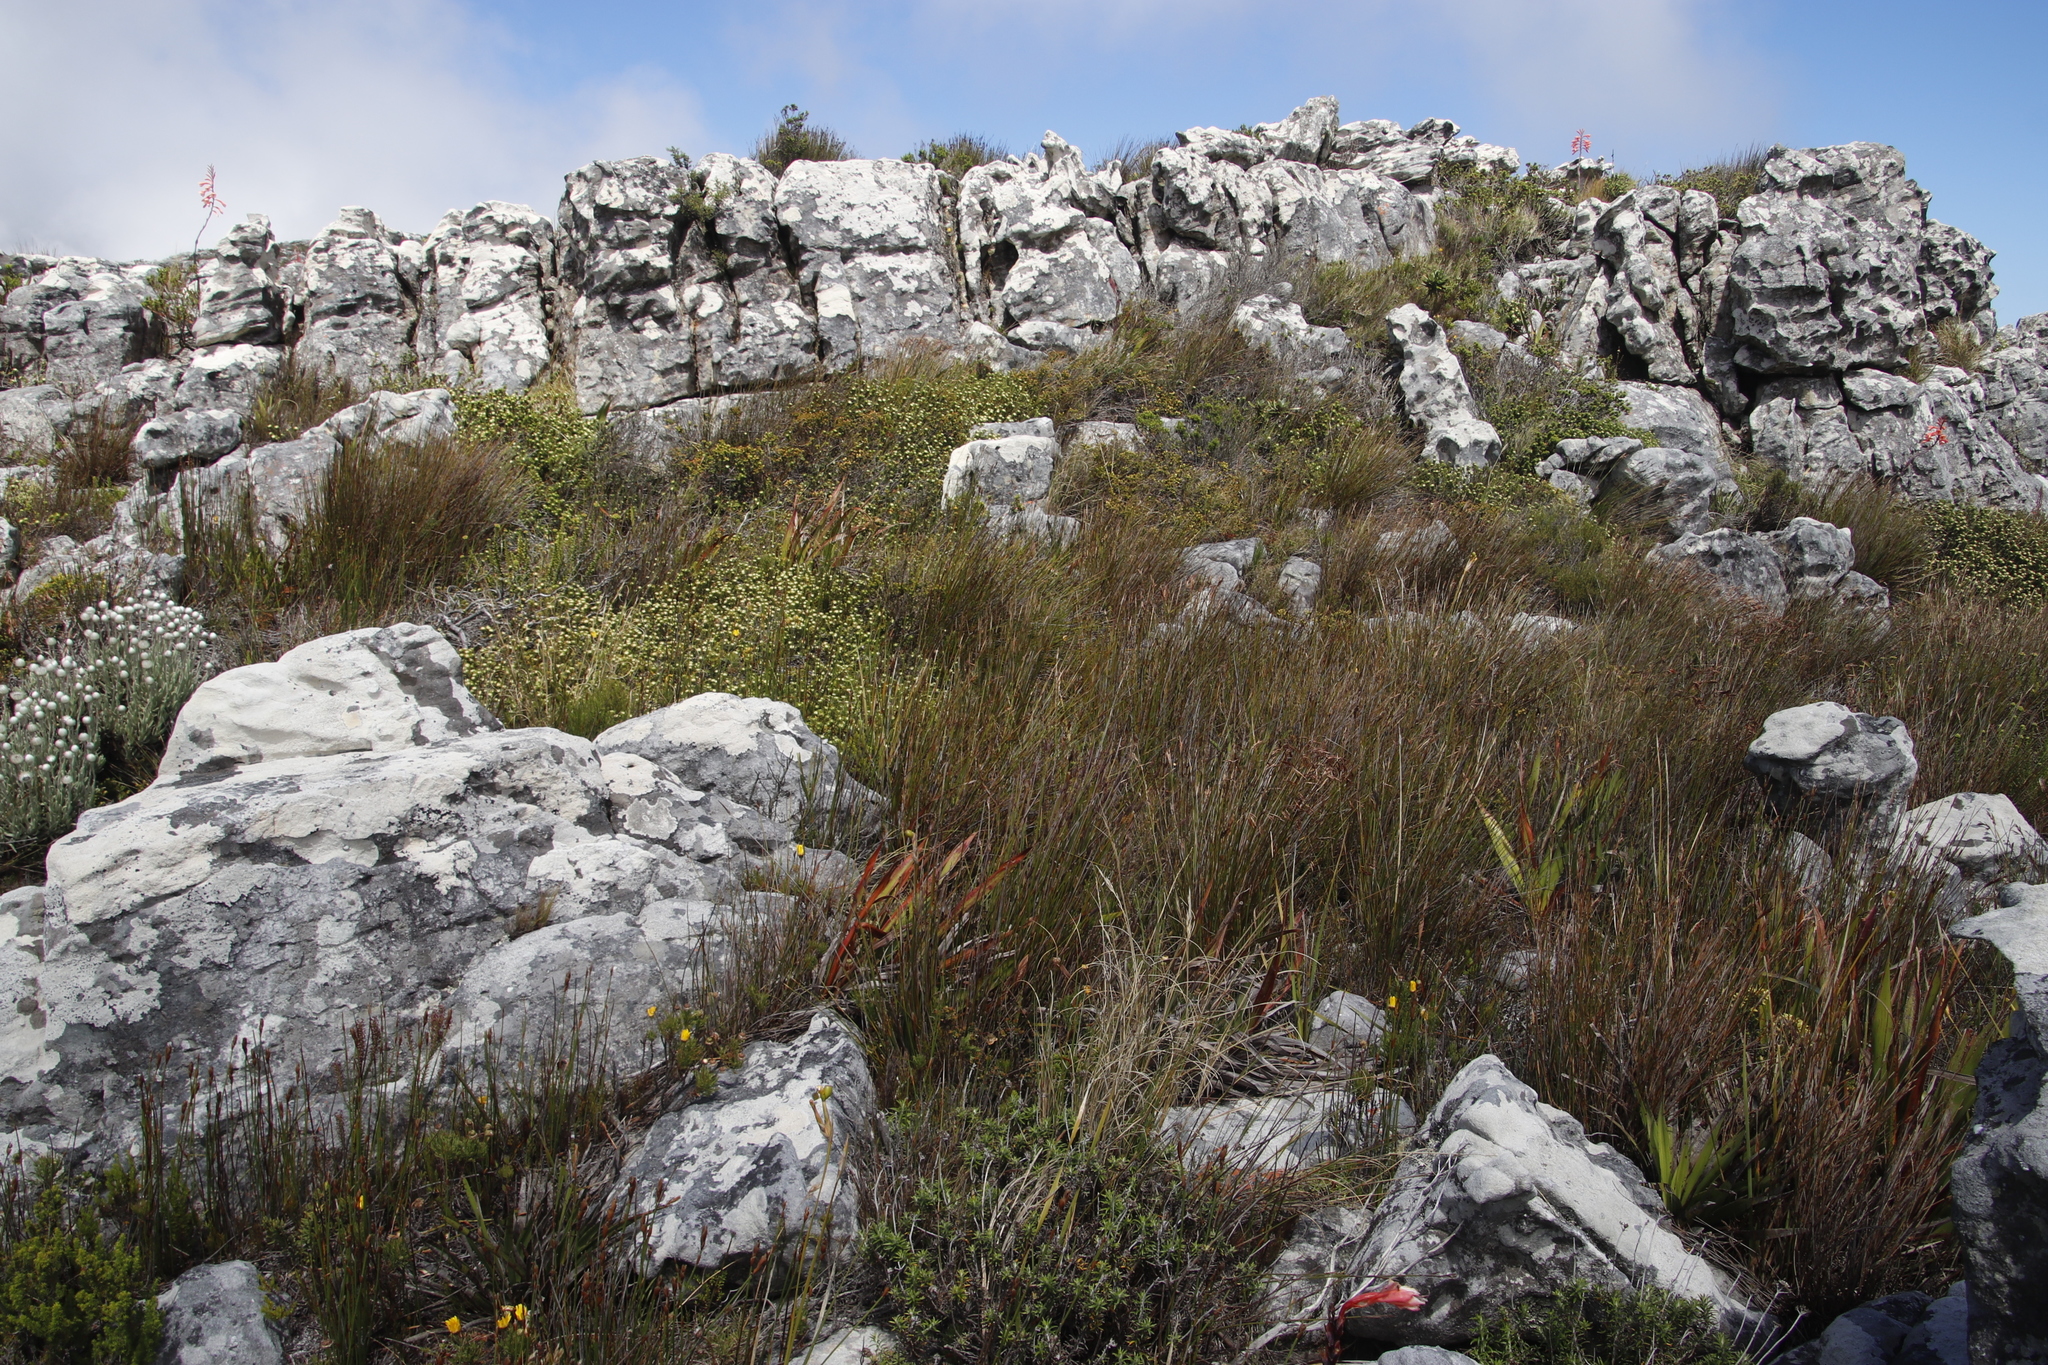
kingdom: Plantae
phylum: Tracheophyta
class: Magnoliopsida
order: Rosales
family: Rhamnaceae
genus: Phylica
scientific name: Phylica dioica
